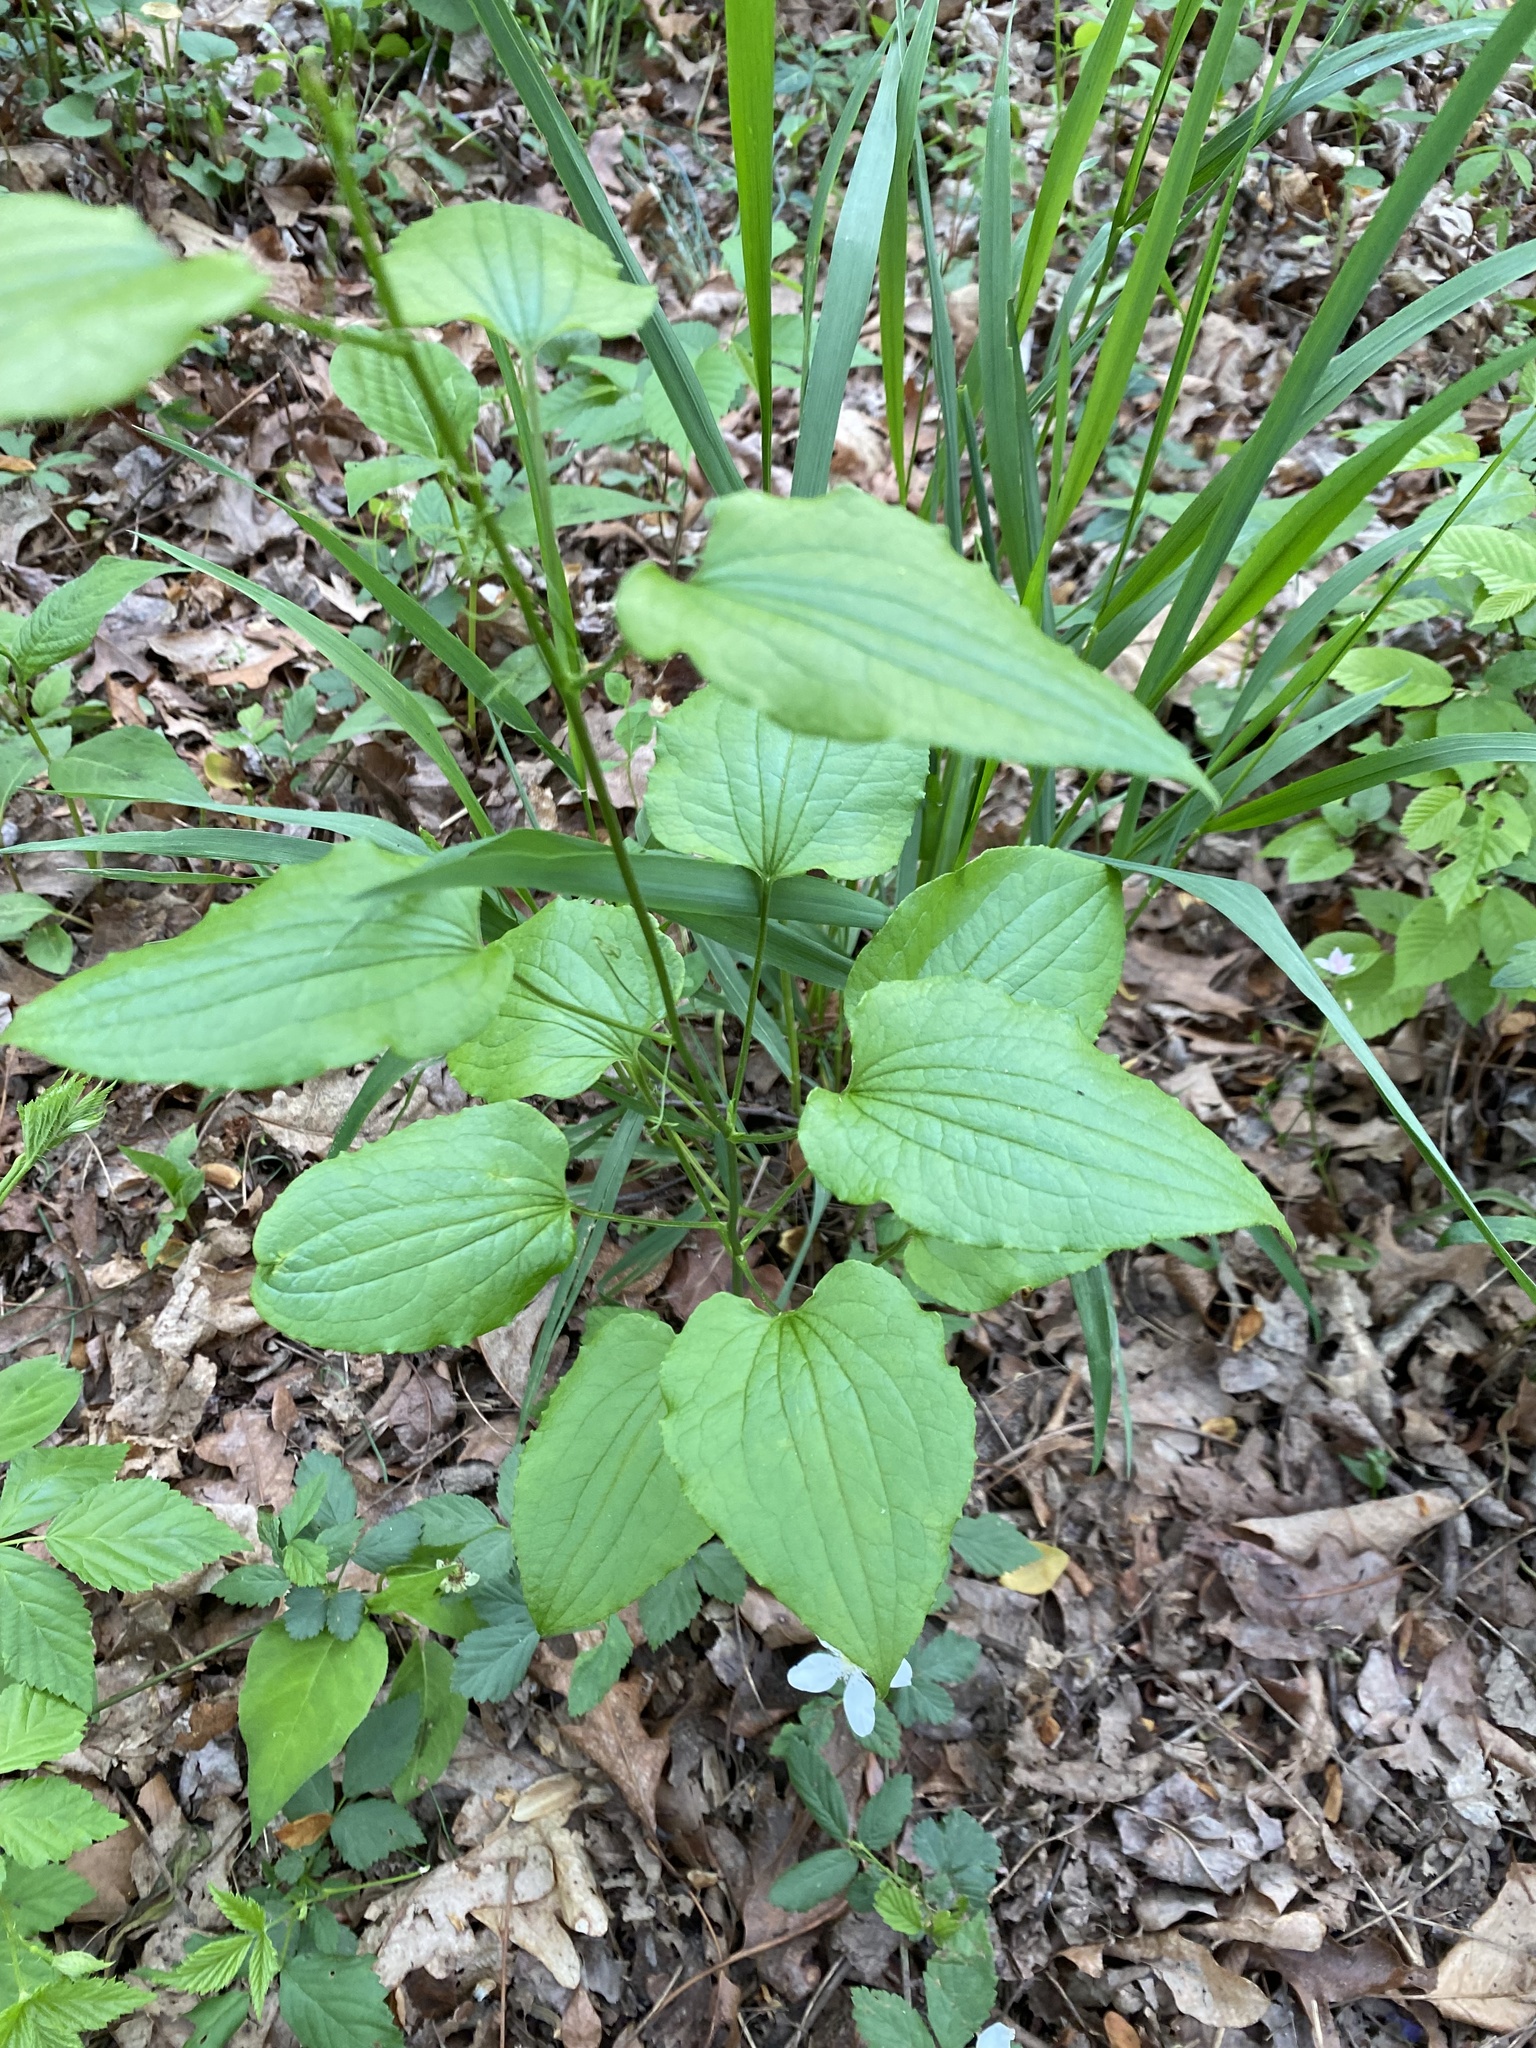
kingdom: Plantae
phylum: Tracheophyta
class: Liliopsida
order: Liliales
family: Smilacaceae
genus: Smilax
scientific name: Smilax pulverulenta
